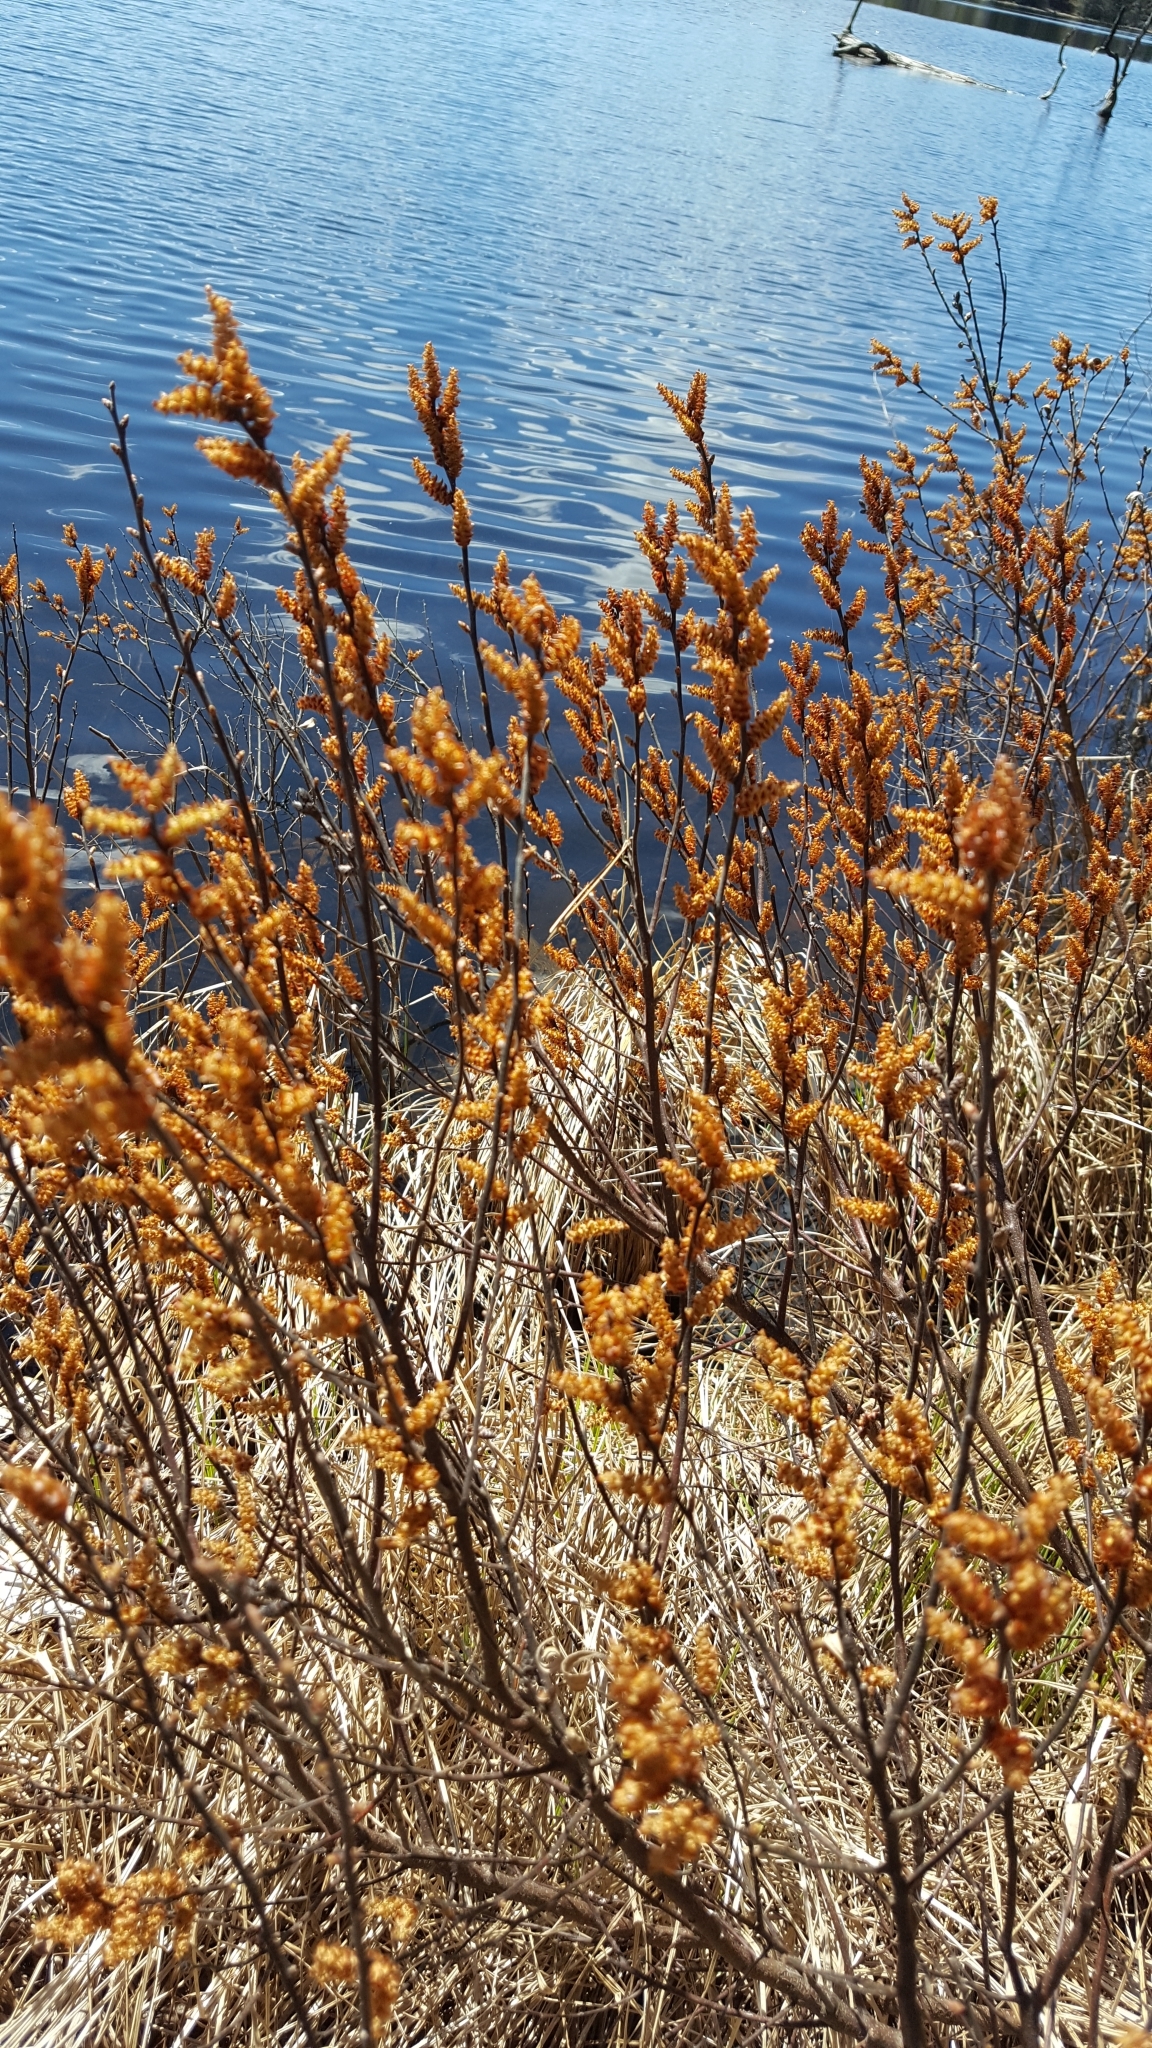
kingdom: Plantae
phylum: Tracheophyta
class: Magnoliopsida
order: Fagales
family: Myricaceae
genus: Myrica
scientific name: Myrica gale
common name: Sweet gale
